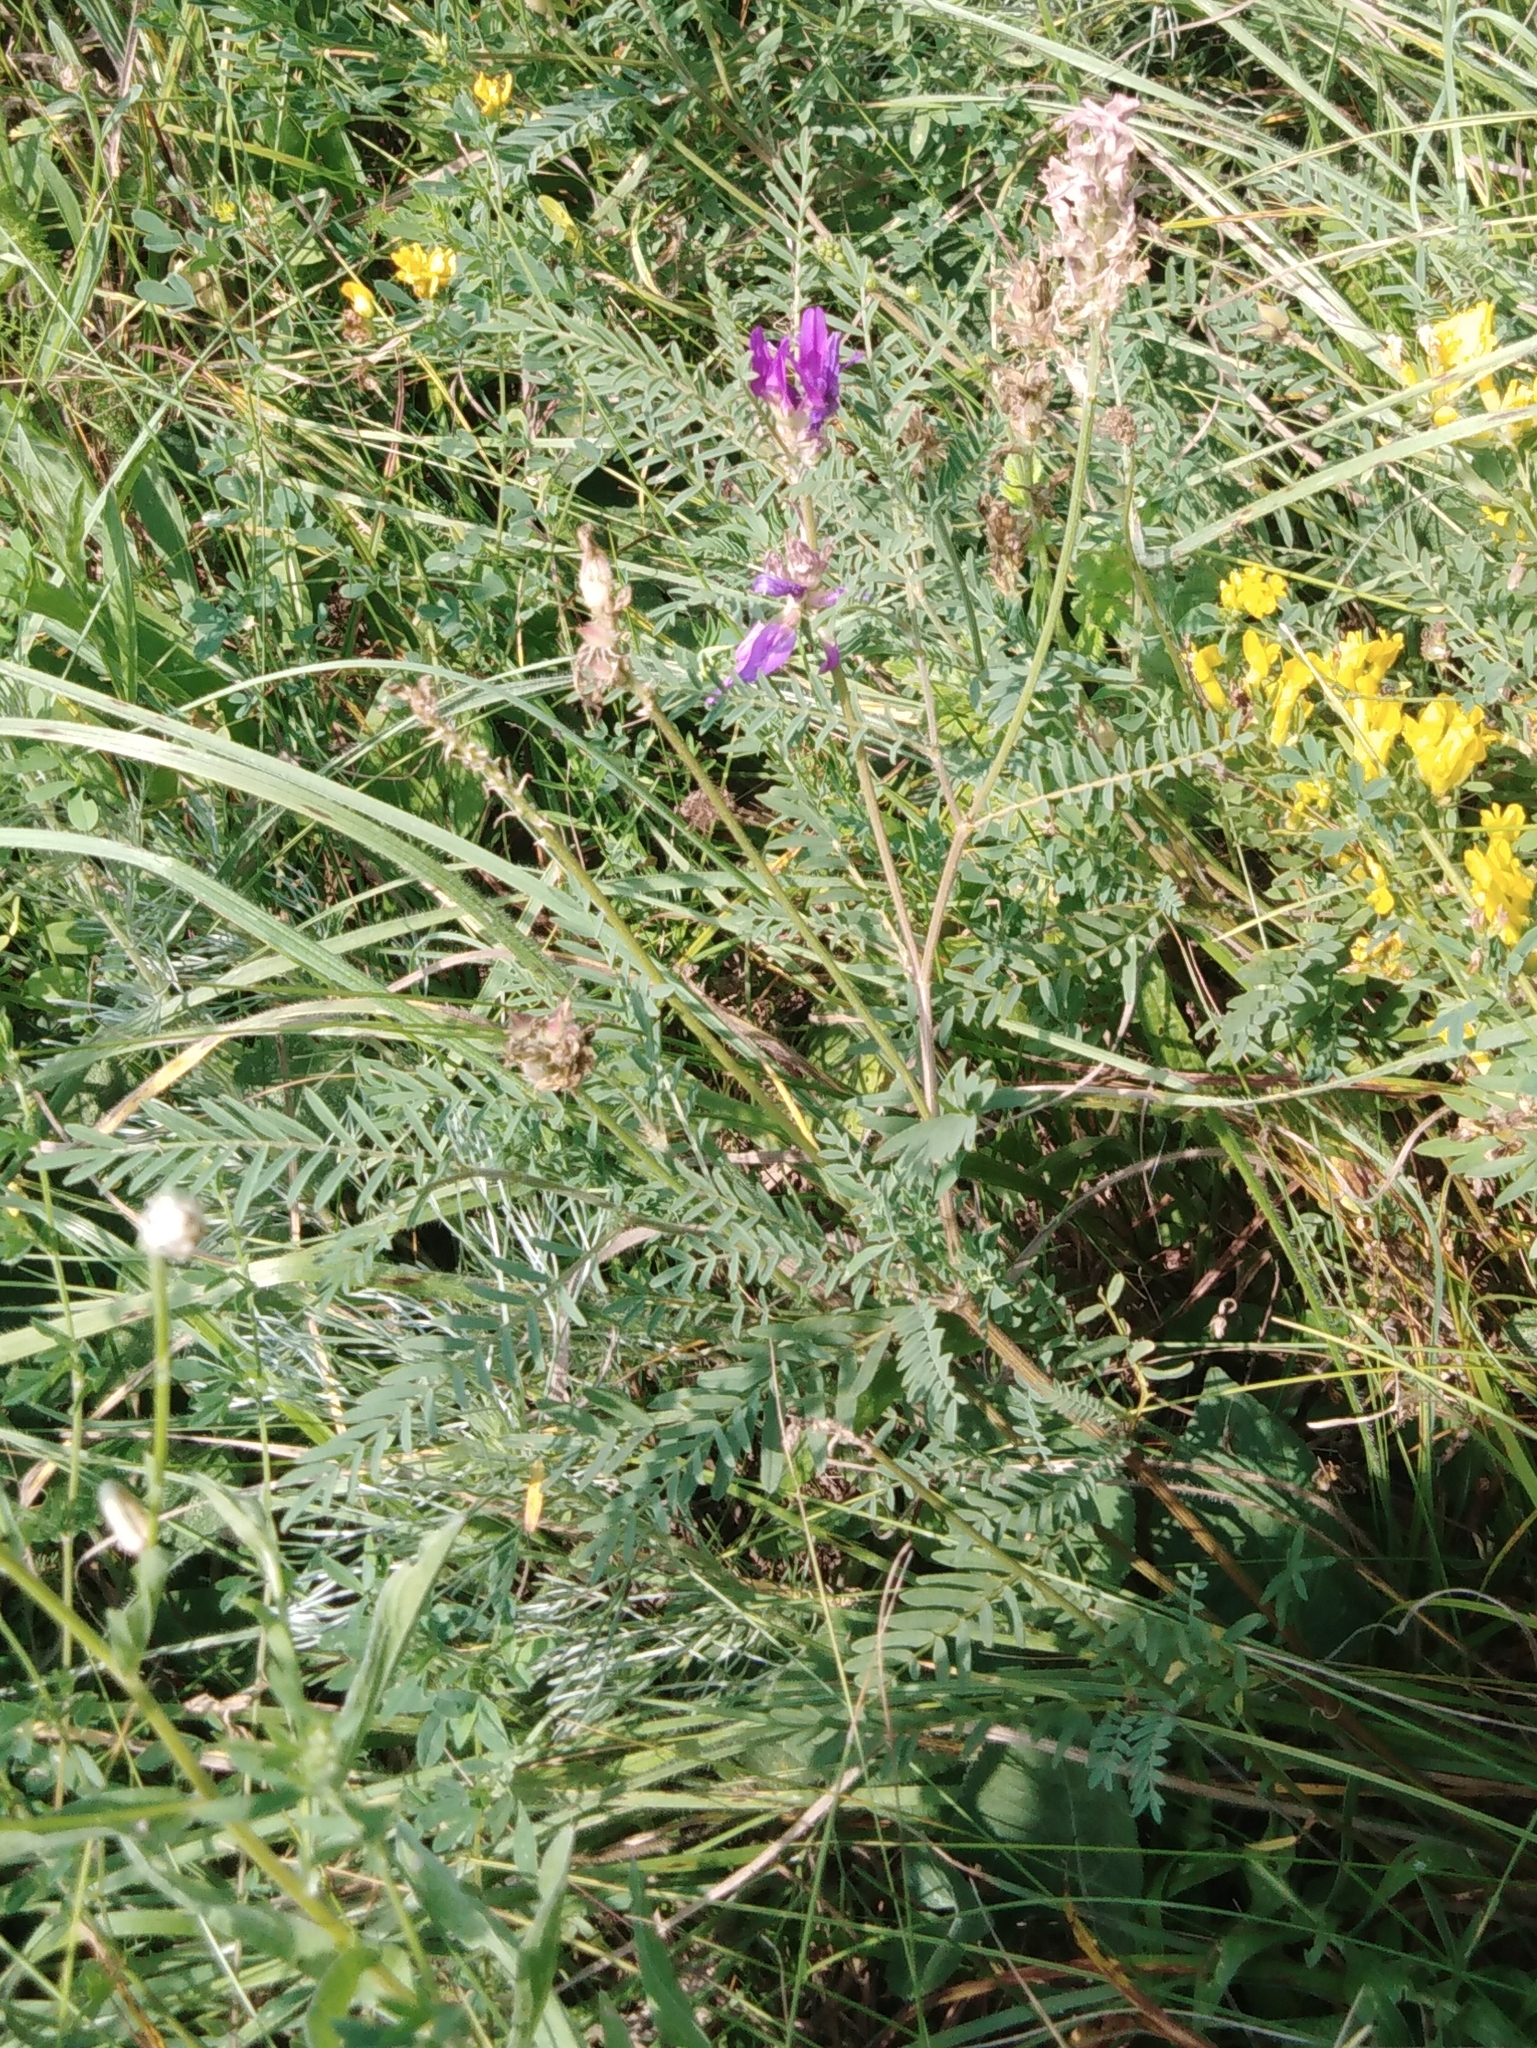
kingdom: Plantae
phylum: Tracheophyta
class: Magnoliopsida
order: Fabales
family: Fabaceae
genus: Astragalus
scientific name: Astragalus onobrychis
